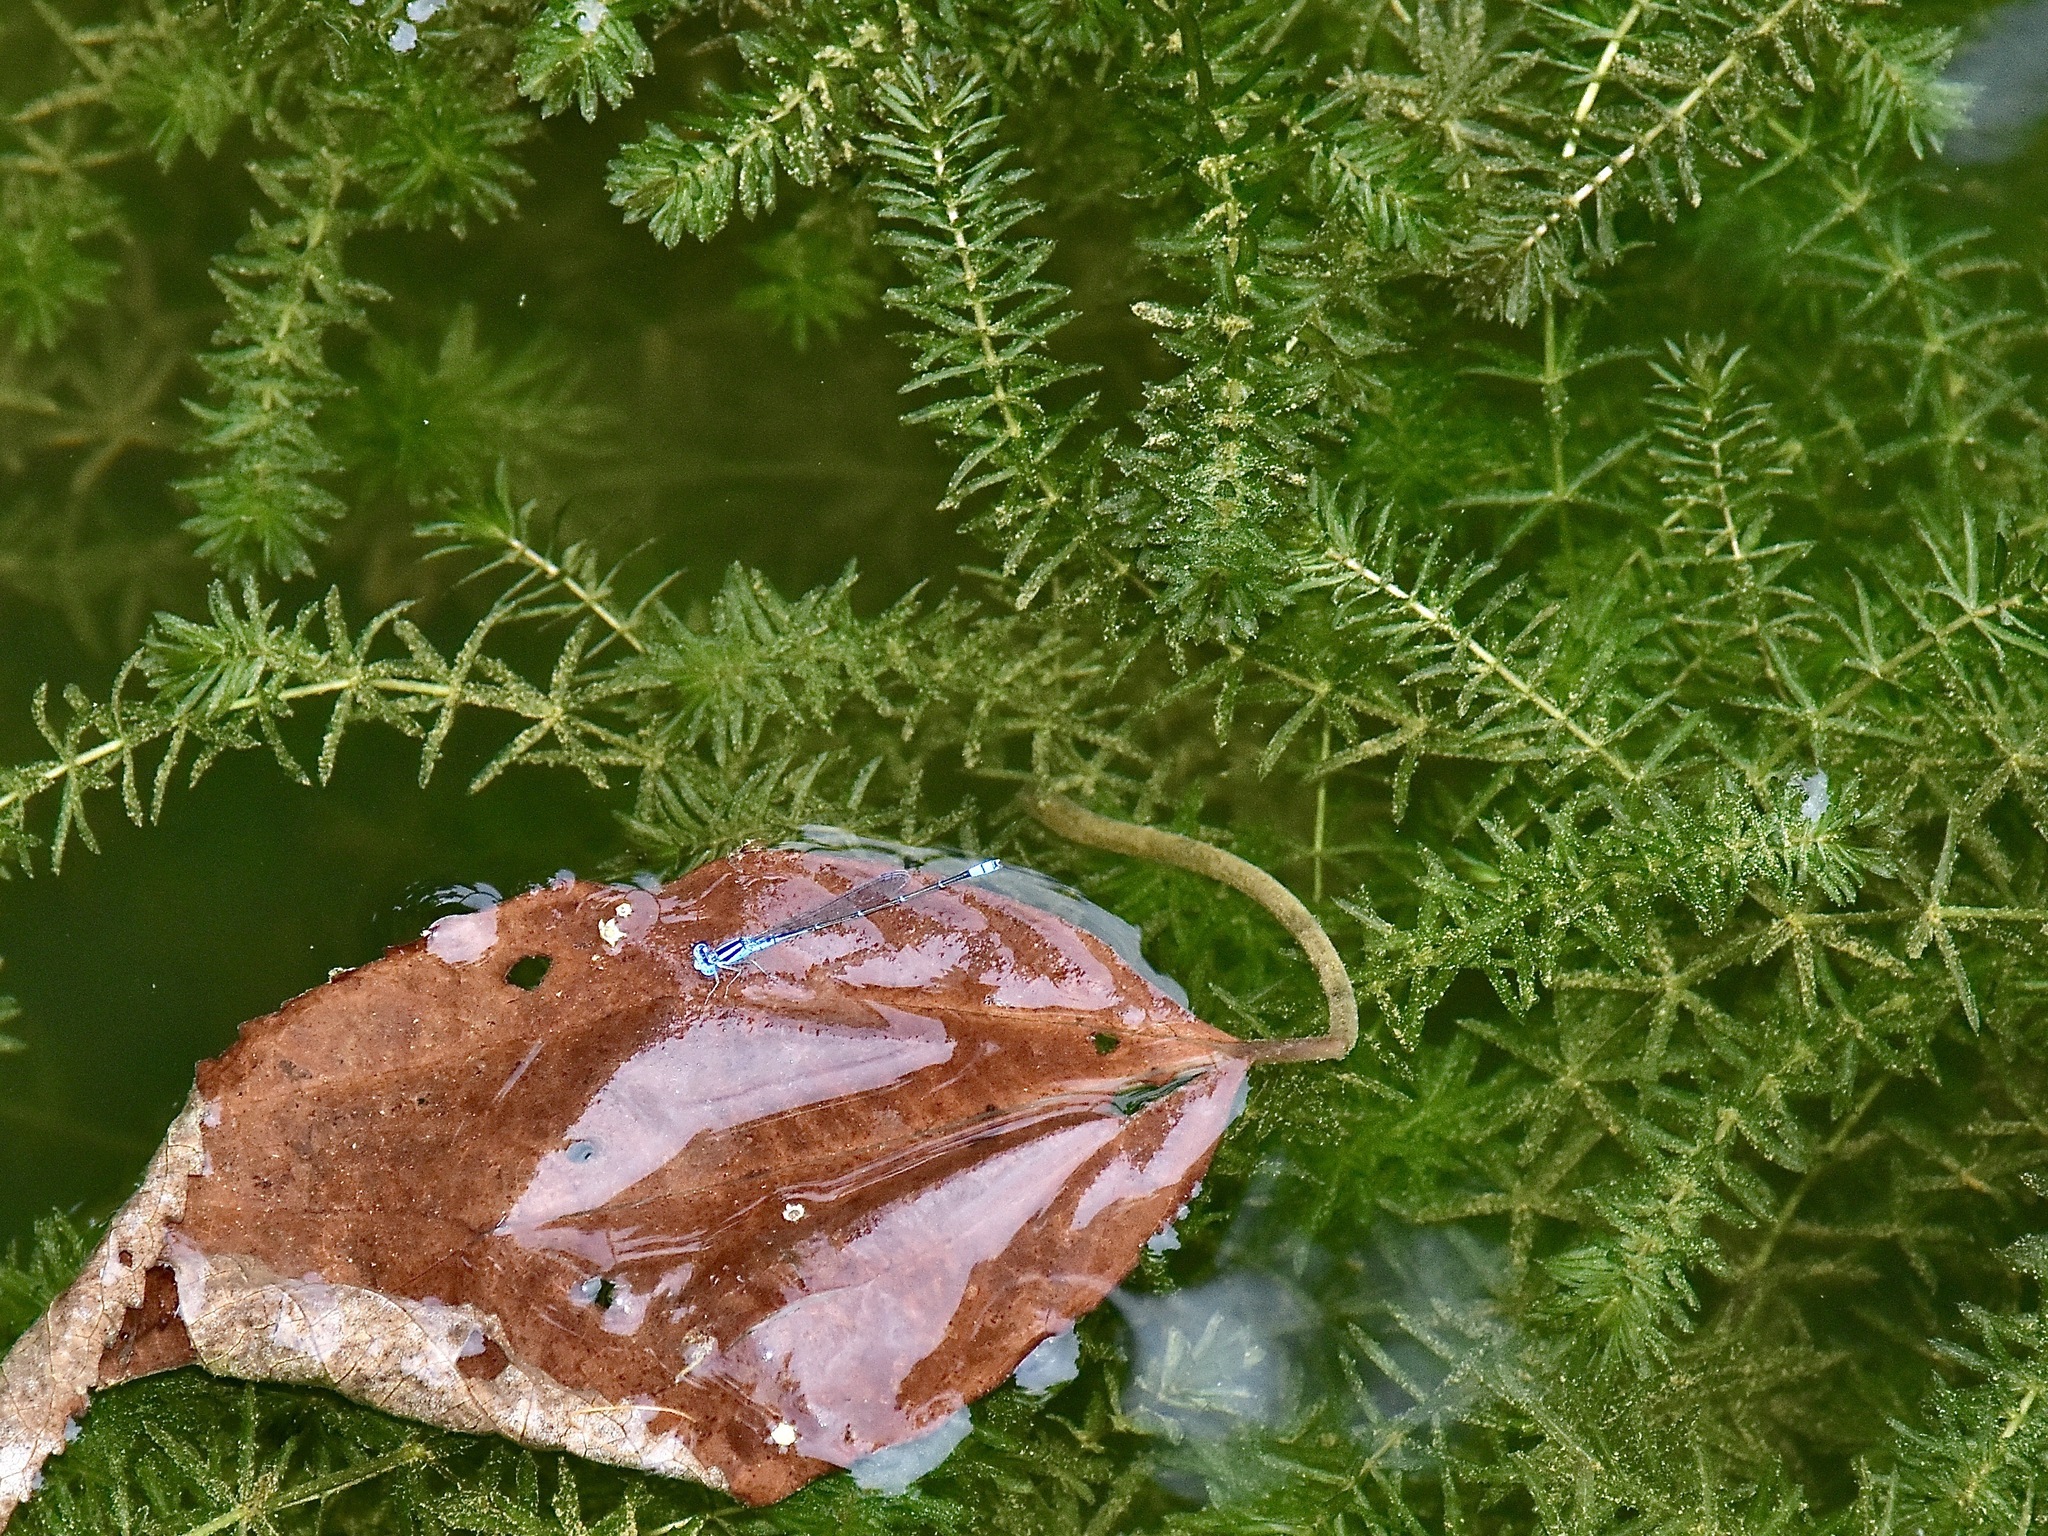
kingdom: Plantae
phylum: Tracheophyta
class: Liliopsida
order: Alismatales
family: Hydrocharitaceae
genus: Hydrilla
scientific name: Hydrilla verticillata
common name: Florida-elodea
